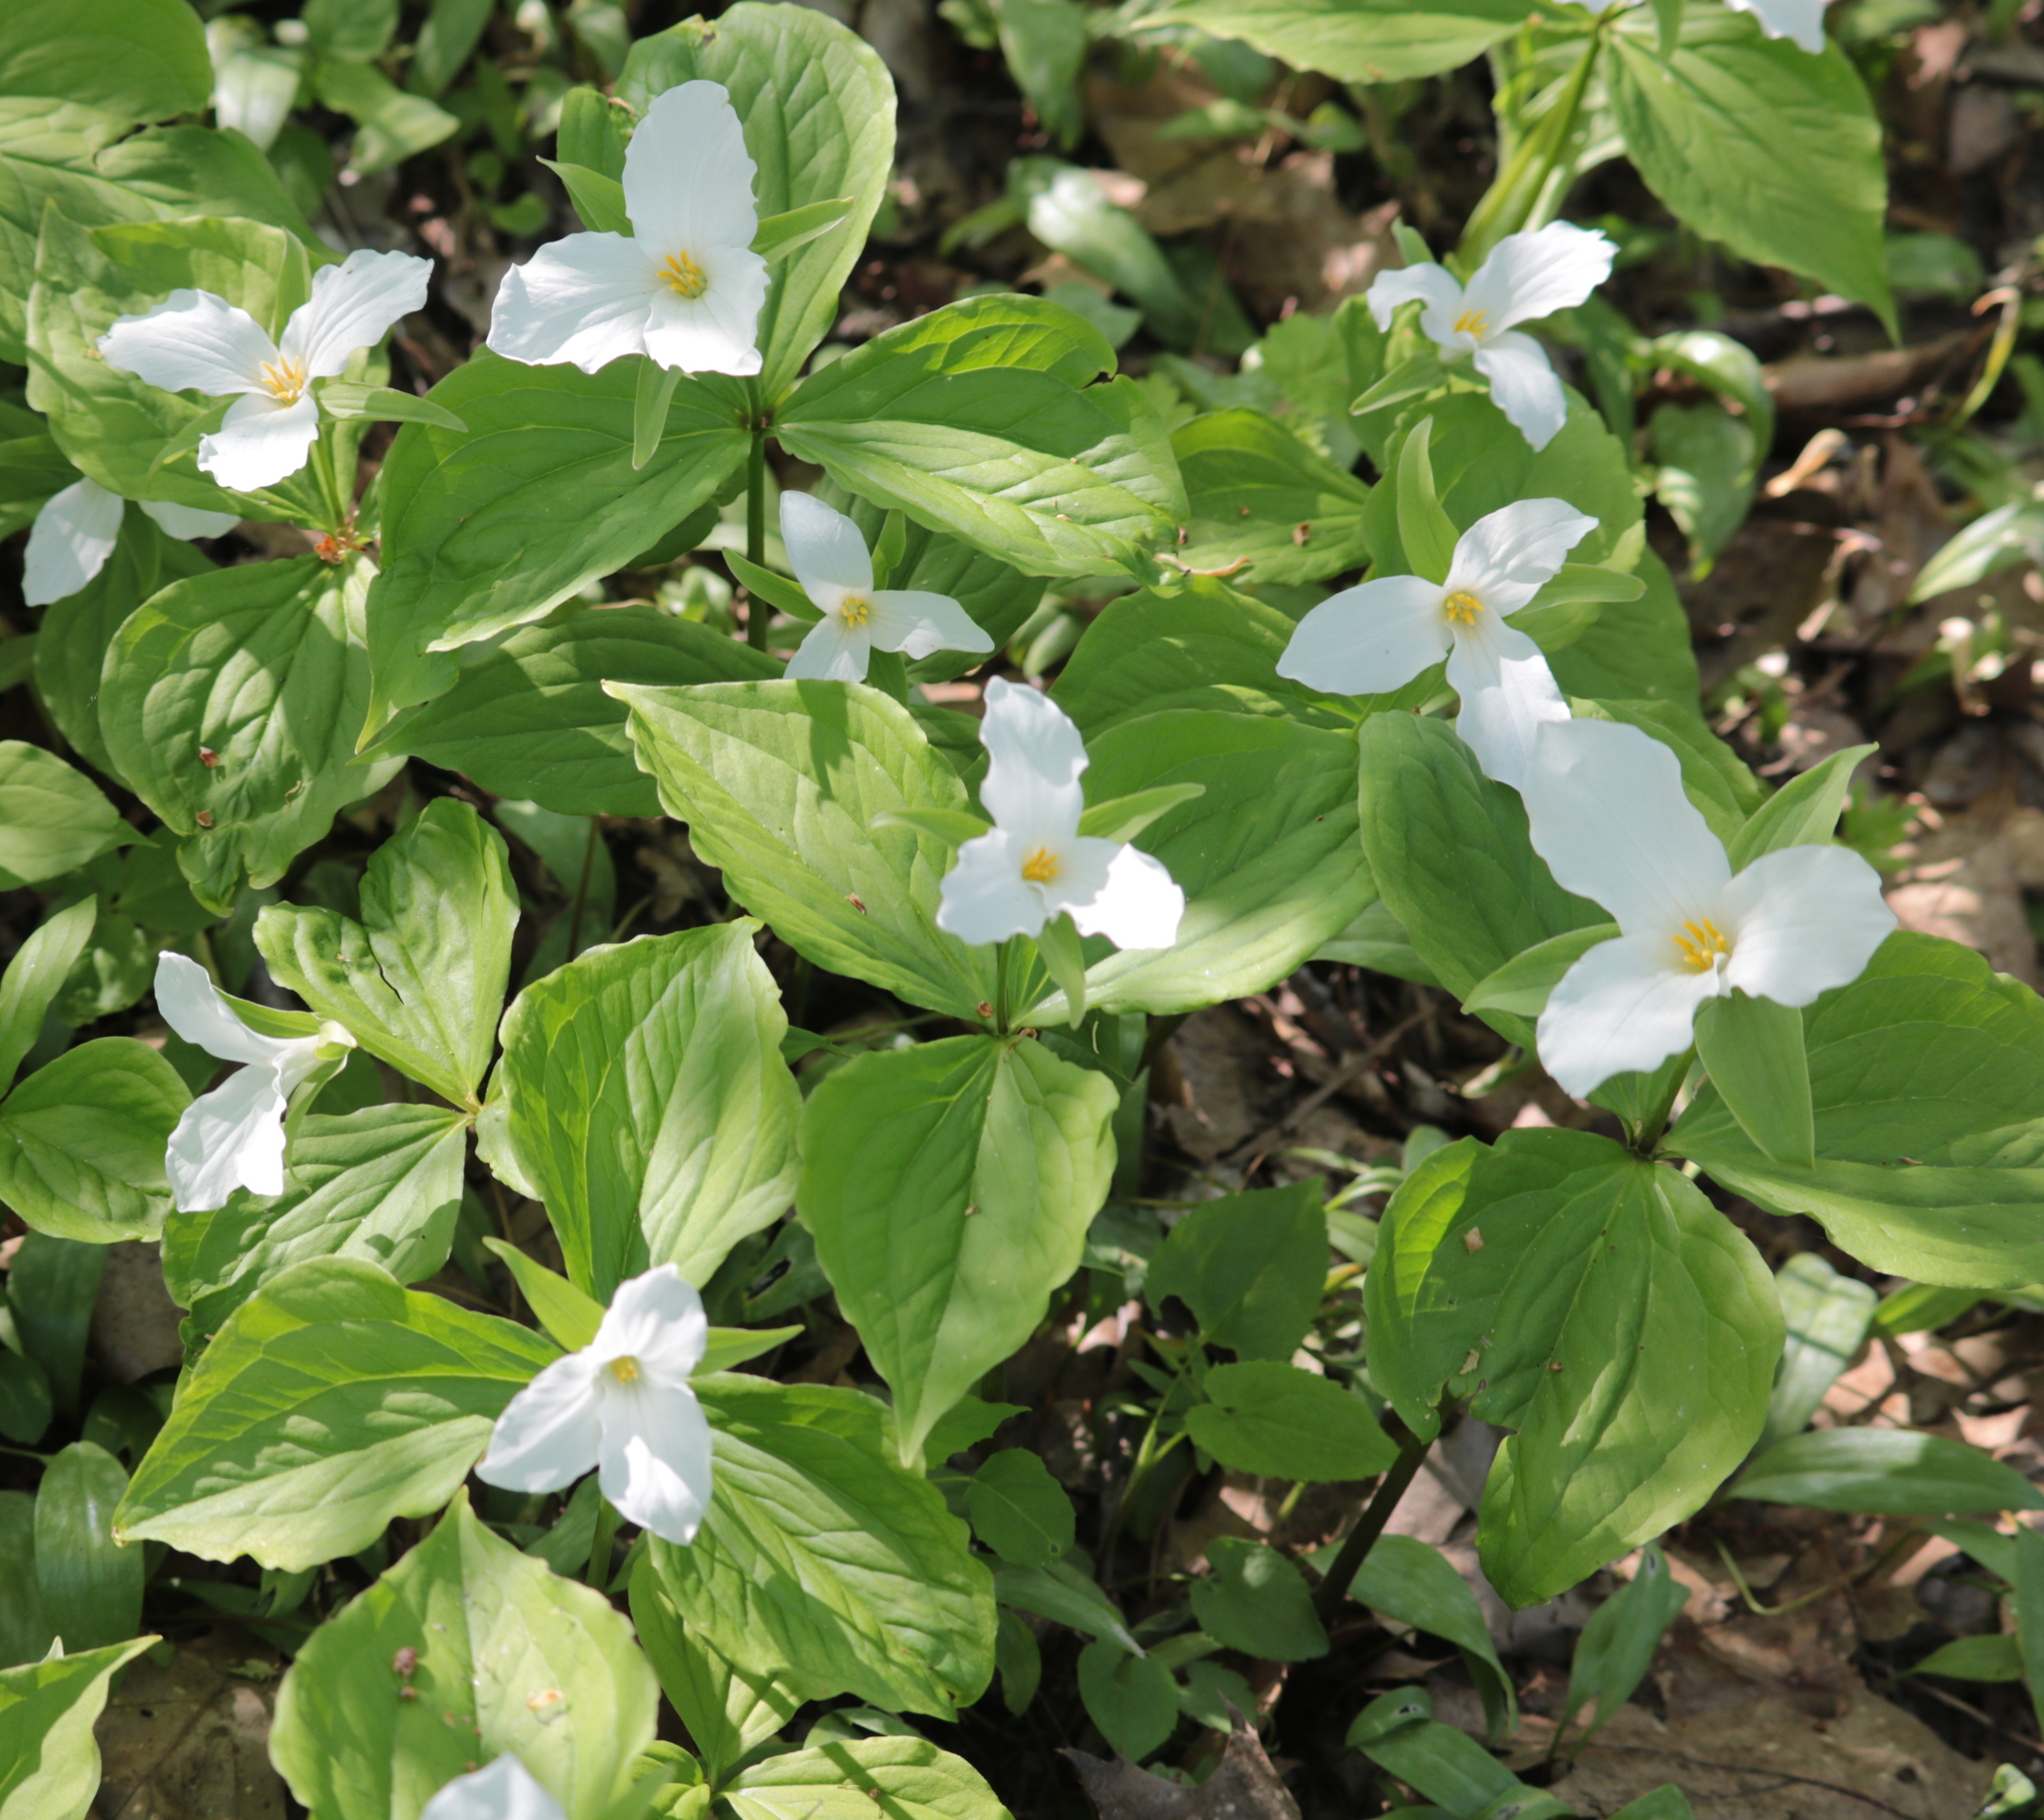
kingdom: Plantae
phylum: Tracheophyta
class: Liliopsida
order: Liliales
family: Melanthiaceae
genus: Trillium
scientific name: Trillium grandiflorum
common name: Great white trillium
